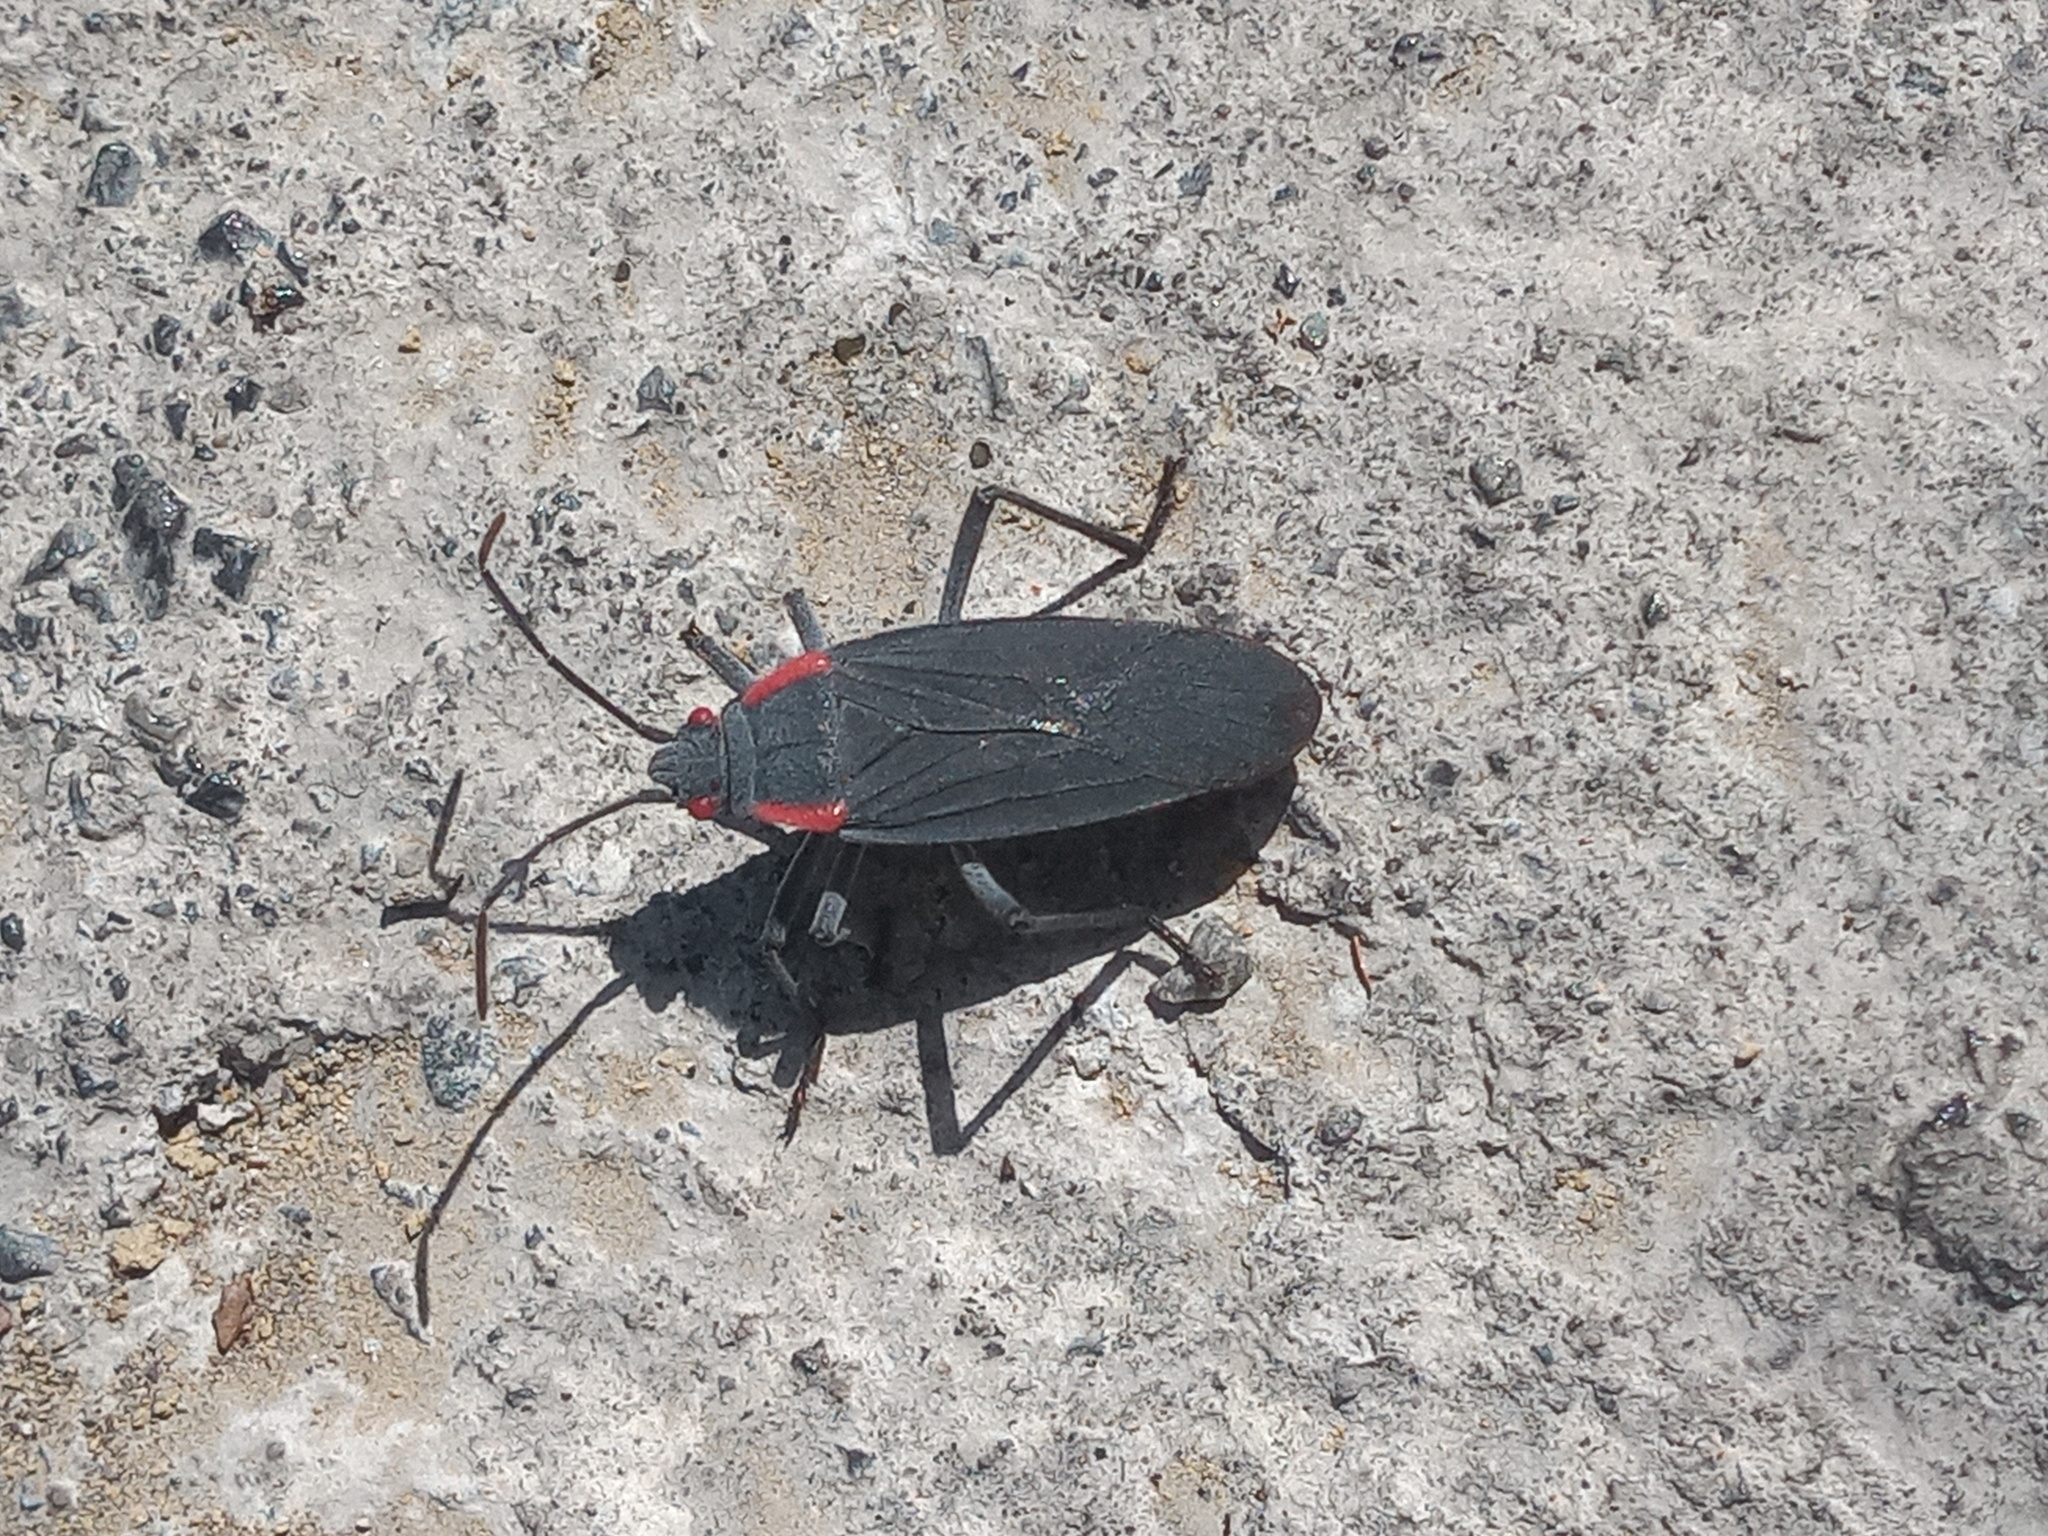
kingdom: Animalia
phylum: Arthropoda
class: Insecta
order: Hemiptera
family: Rhopalidae
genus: Jadera
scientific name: Jadera haematoloma
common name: Red-shouldered bug
